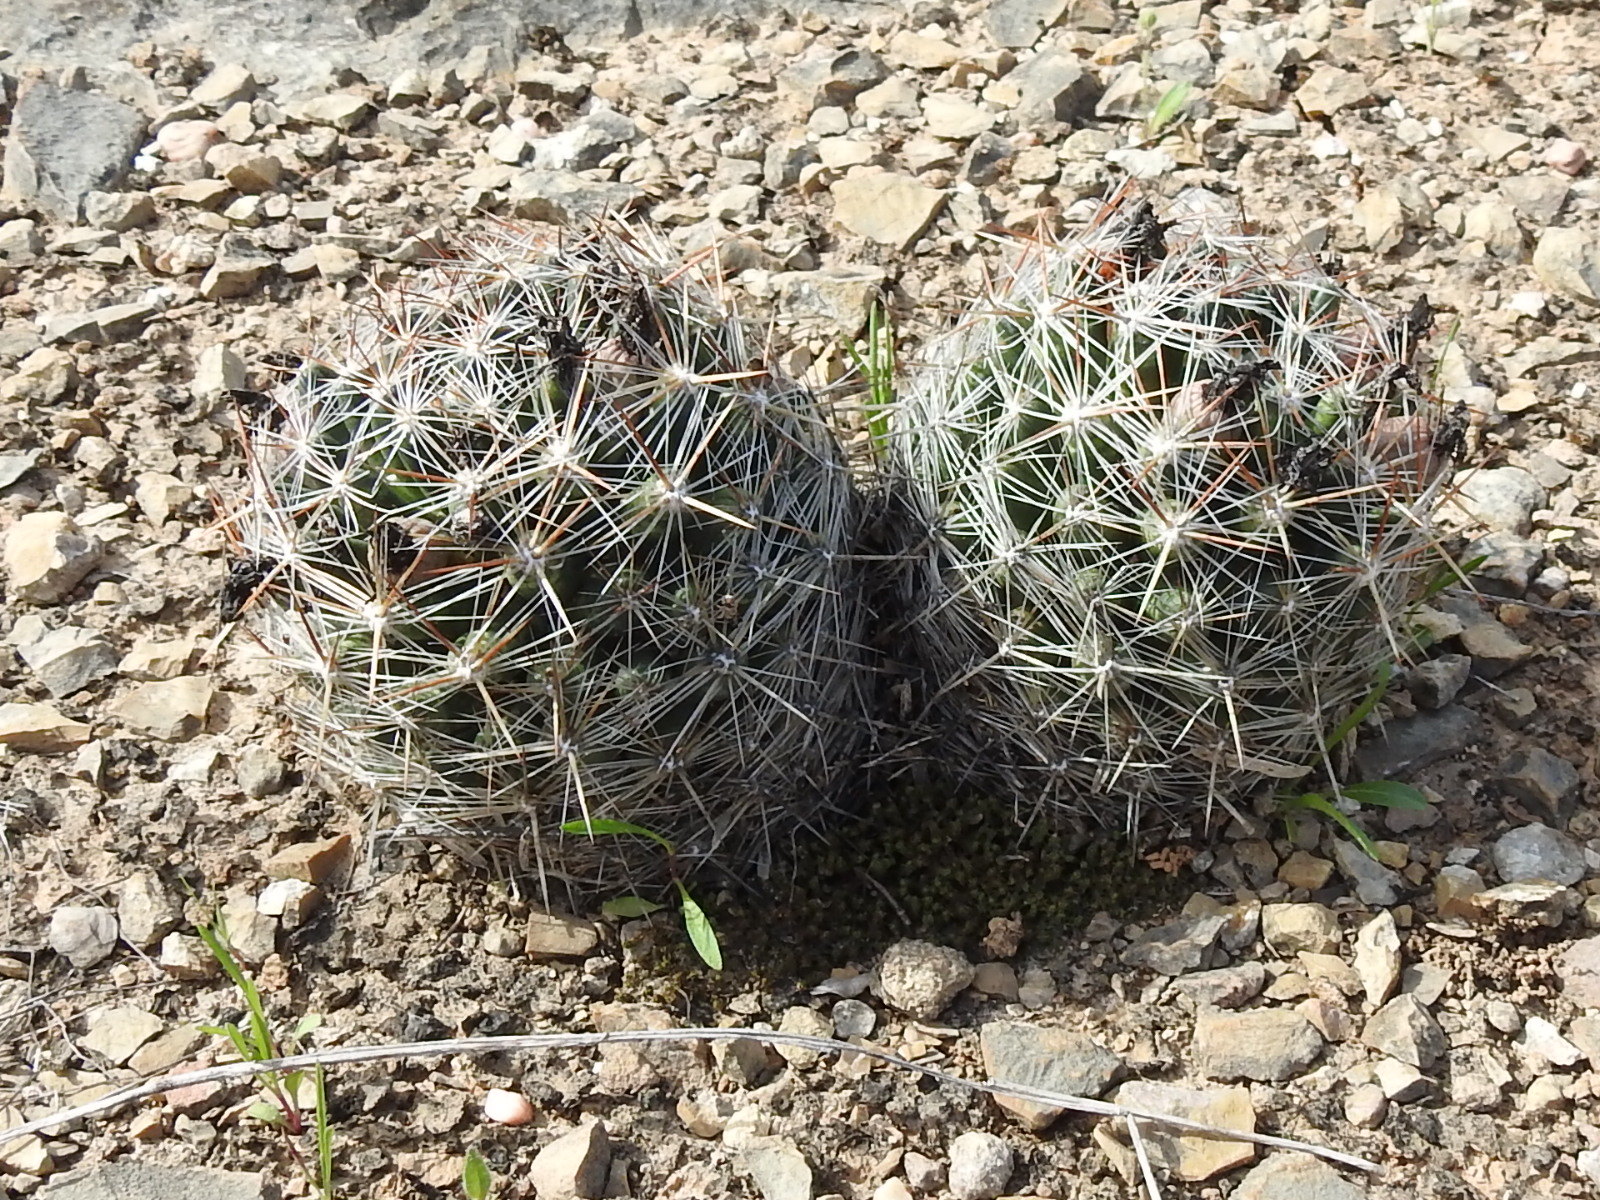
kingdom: Plantae
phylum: Tracheophyta
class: Magnoliopsida
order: Caryophyllales
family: Cactaceae
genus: Pelecyphora
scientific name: Pelecyphora vivipara
